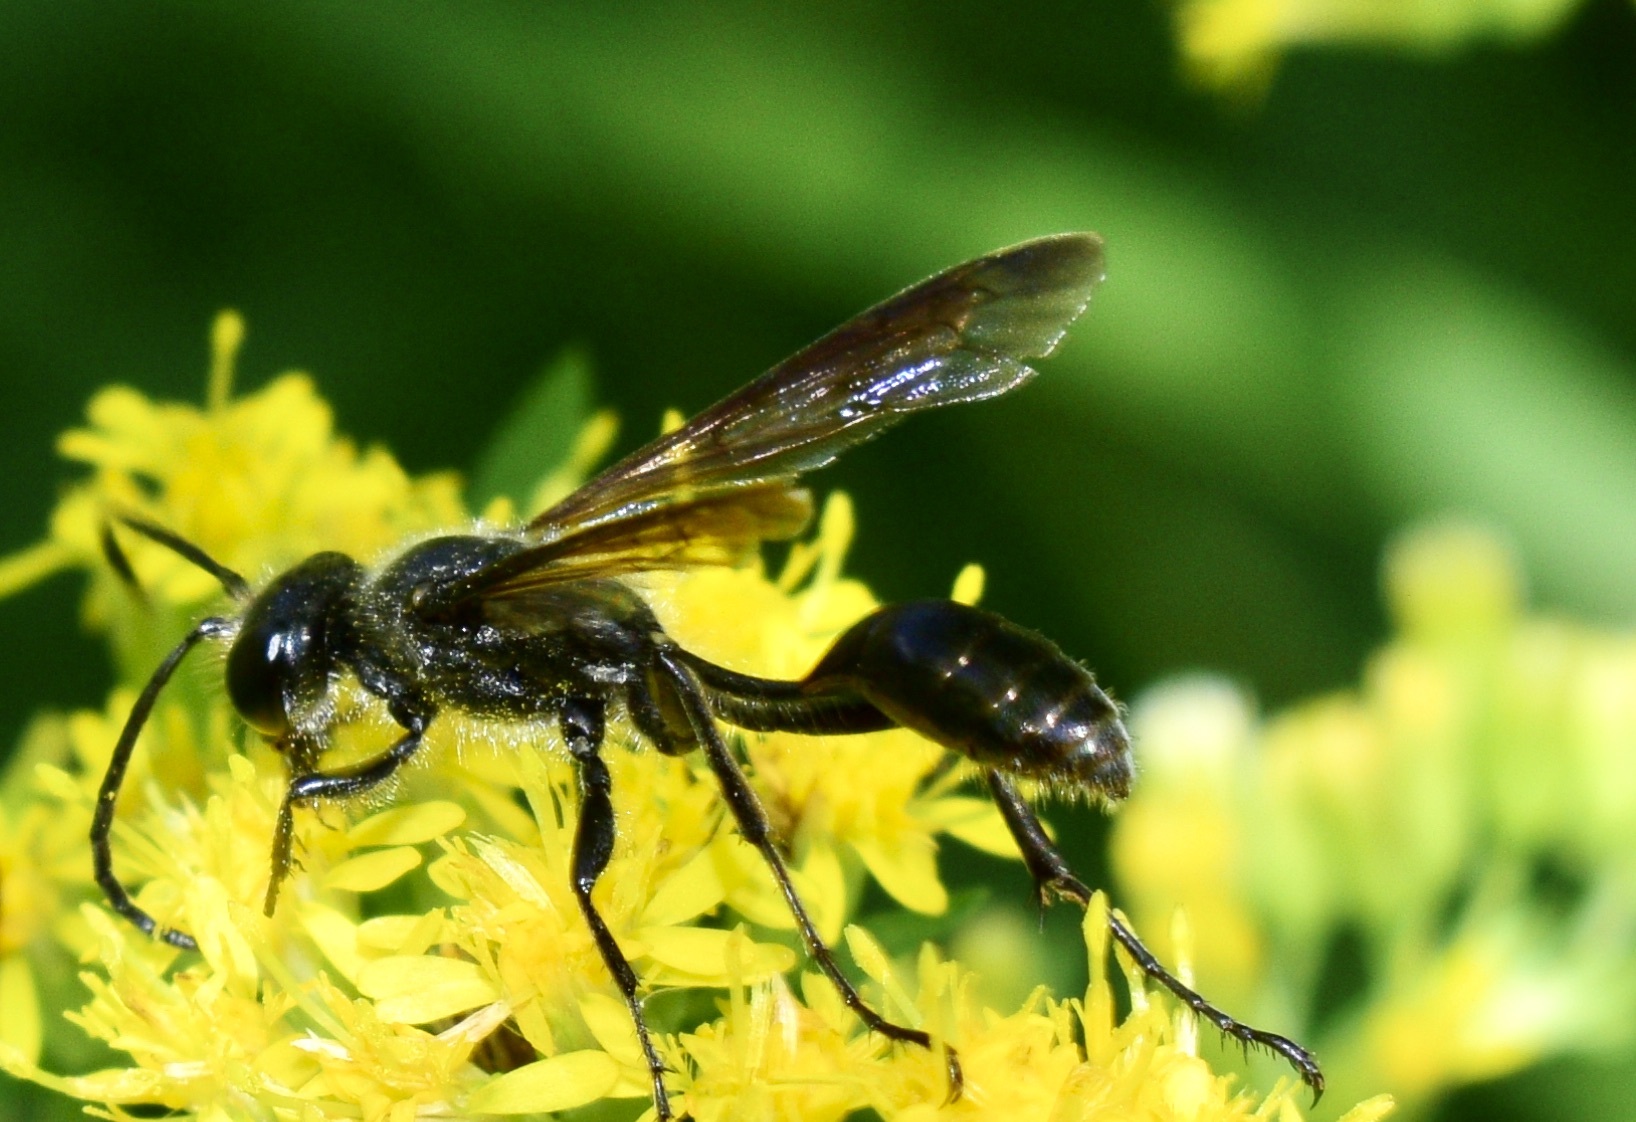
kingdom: Animalia
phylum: Arthropoda
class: Insecta
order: Hymenoptera
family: Sphecidae
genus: Isodontia
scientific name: Isodontia mexicana
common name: Mud dauber
